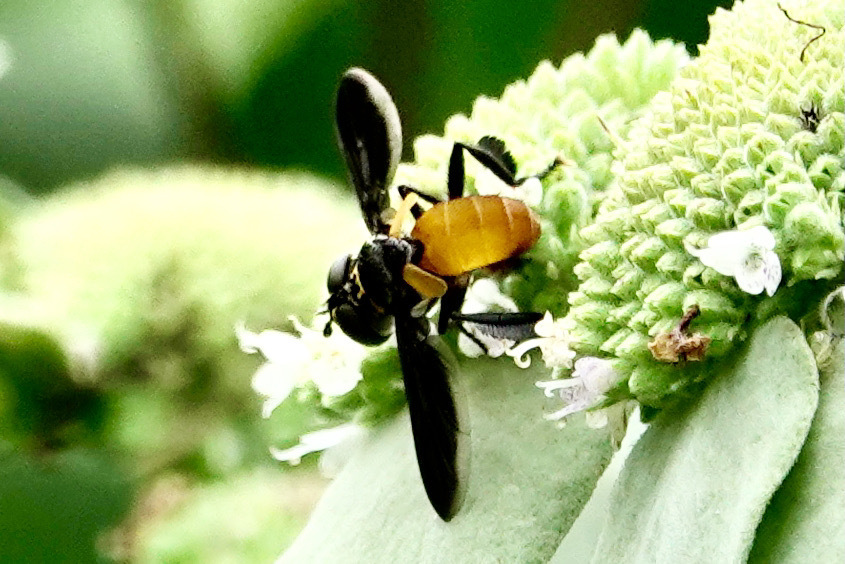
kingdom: Animalia
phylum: Arthropoda
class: Insecta
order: Diptera
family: Tachinidae
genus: Trichopoda
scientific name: Trichopoda pennipes
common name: Tachinid fly
